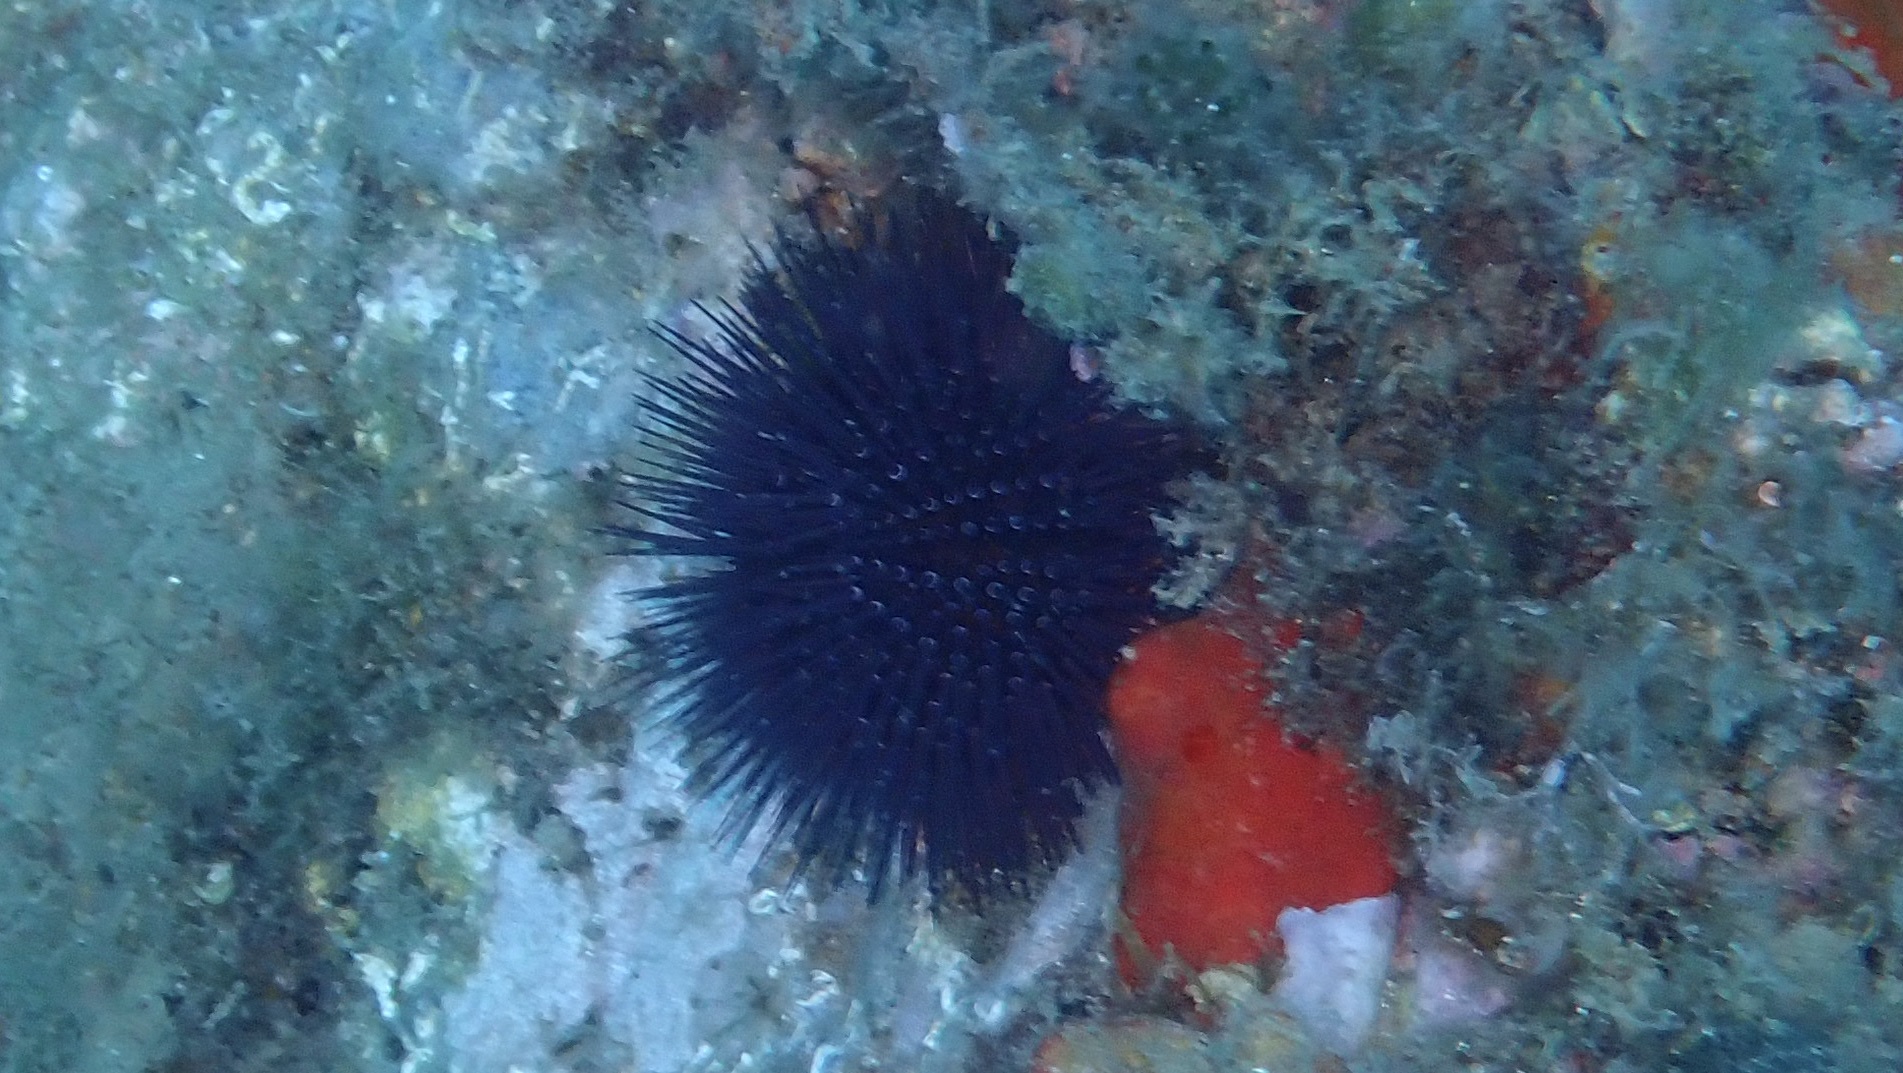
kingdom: Animalia
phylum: Echinodermata
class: Echinoidea
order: Camarodonta
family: Parechinidae
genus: Paracentrotus
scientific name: Paracentrotus lividus
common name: Purple sea urchin
